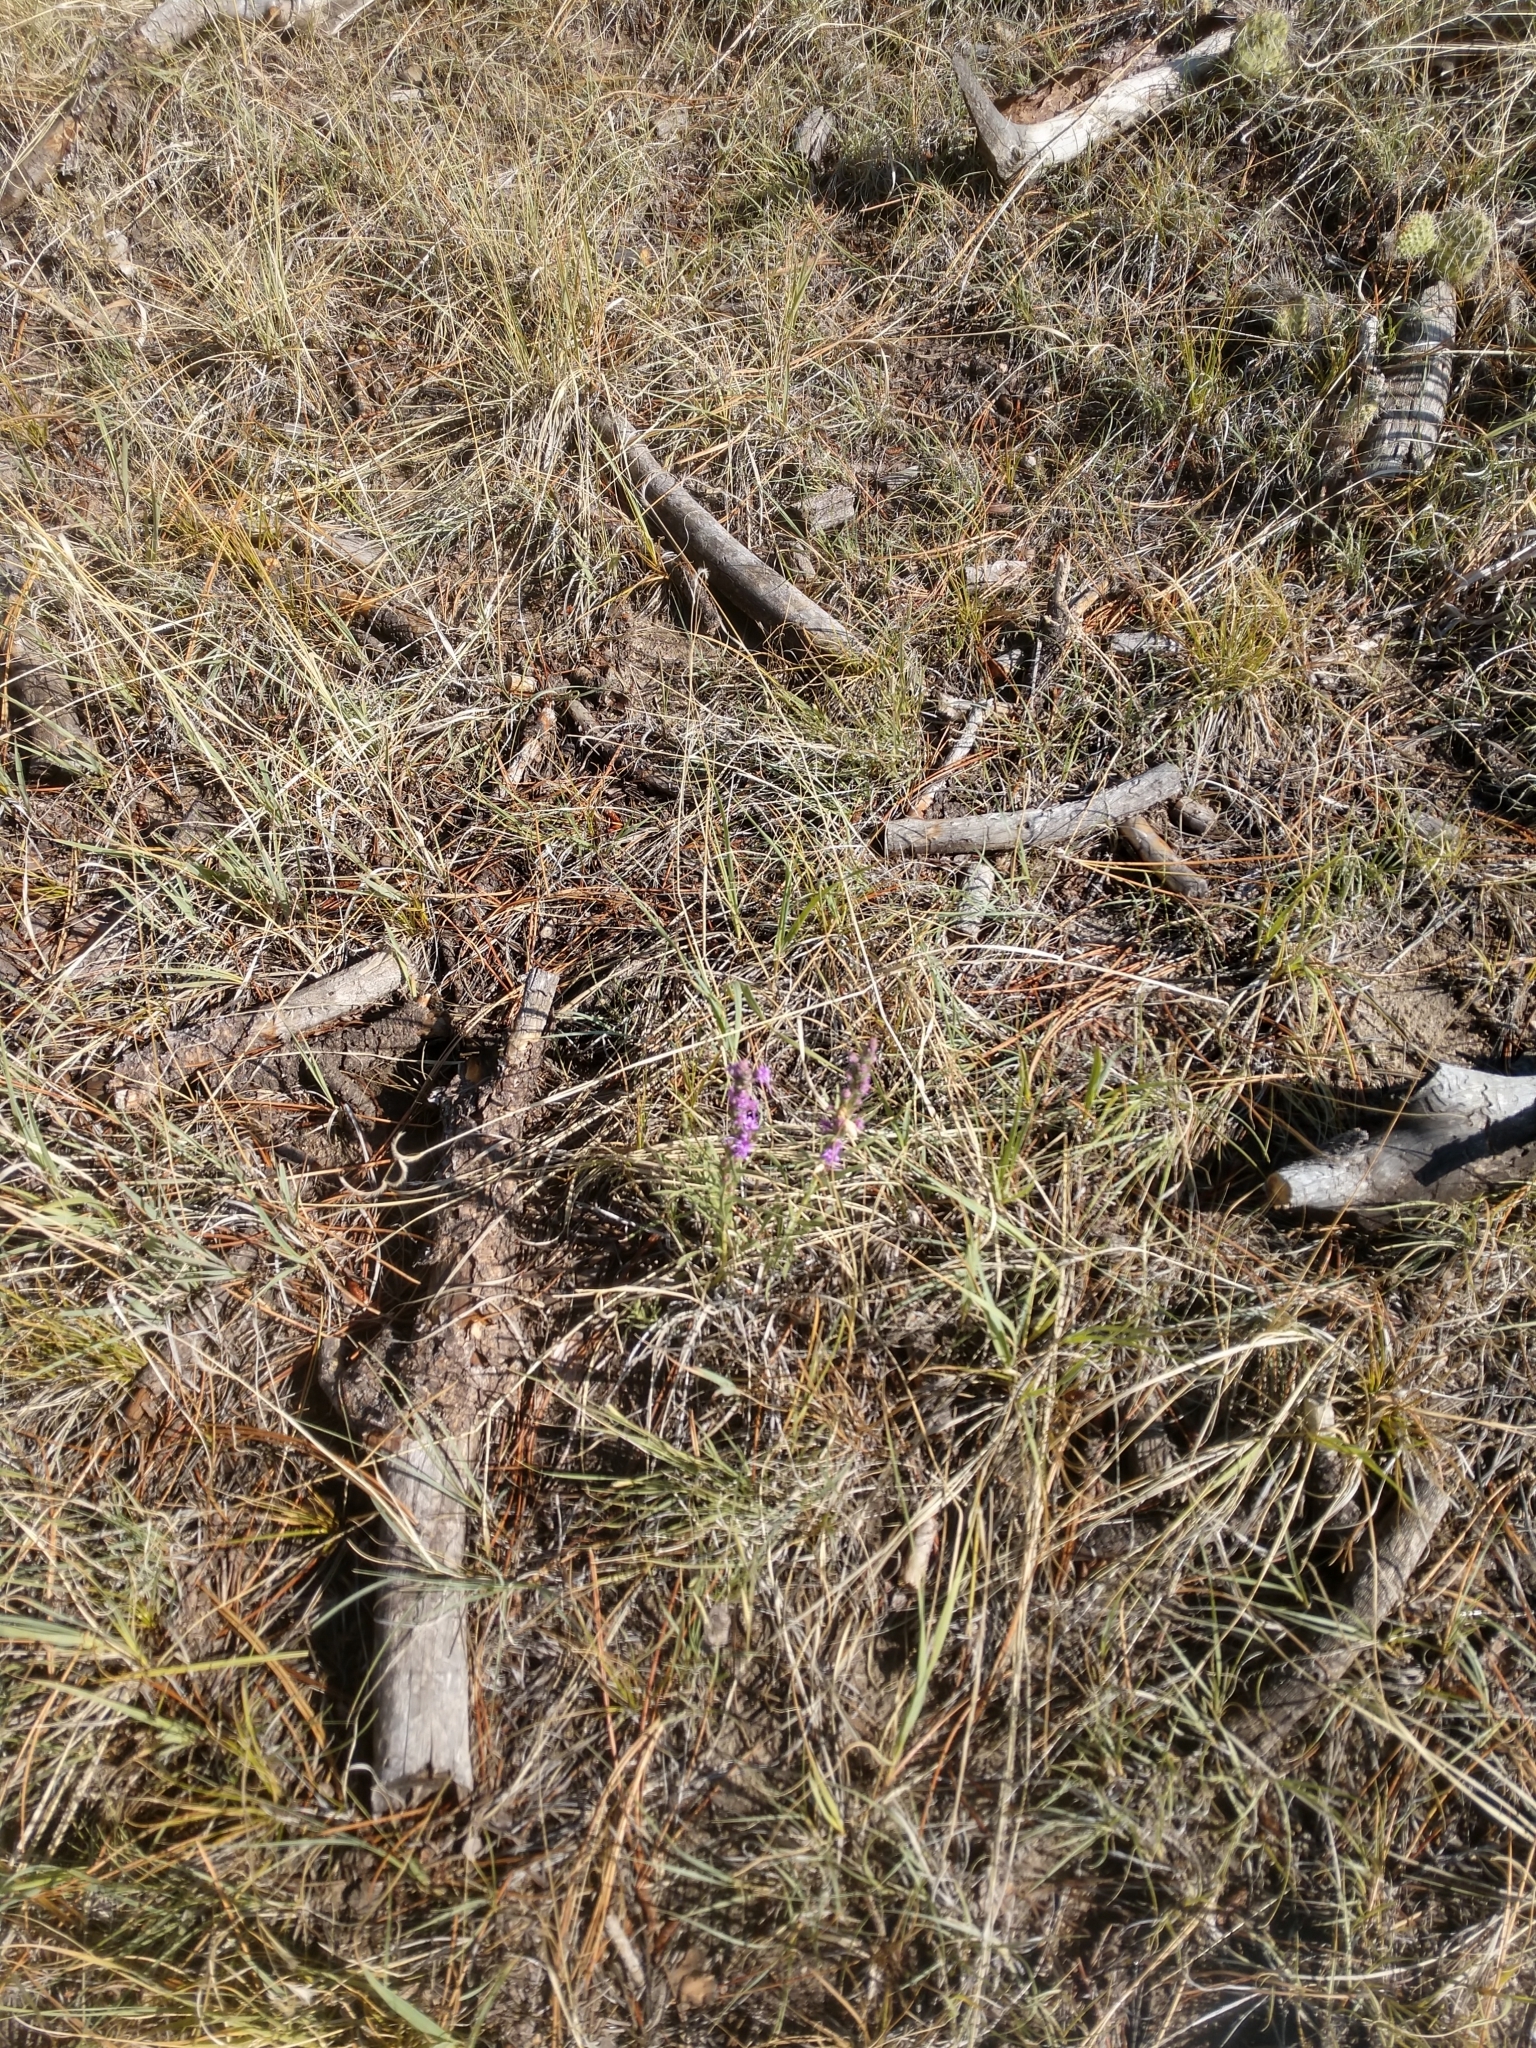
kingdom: Plantae
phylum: Tracheophyta
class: Magnoliopsida
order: Asterales
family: Asteraceae
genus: Liatris
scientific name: Liatris punctata
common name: Dotted gayfeather
